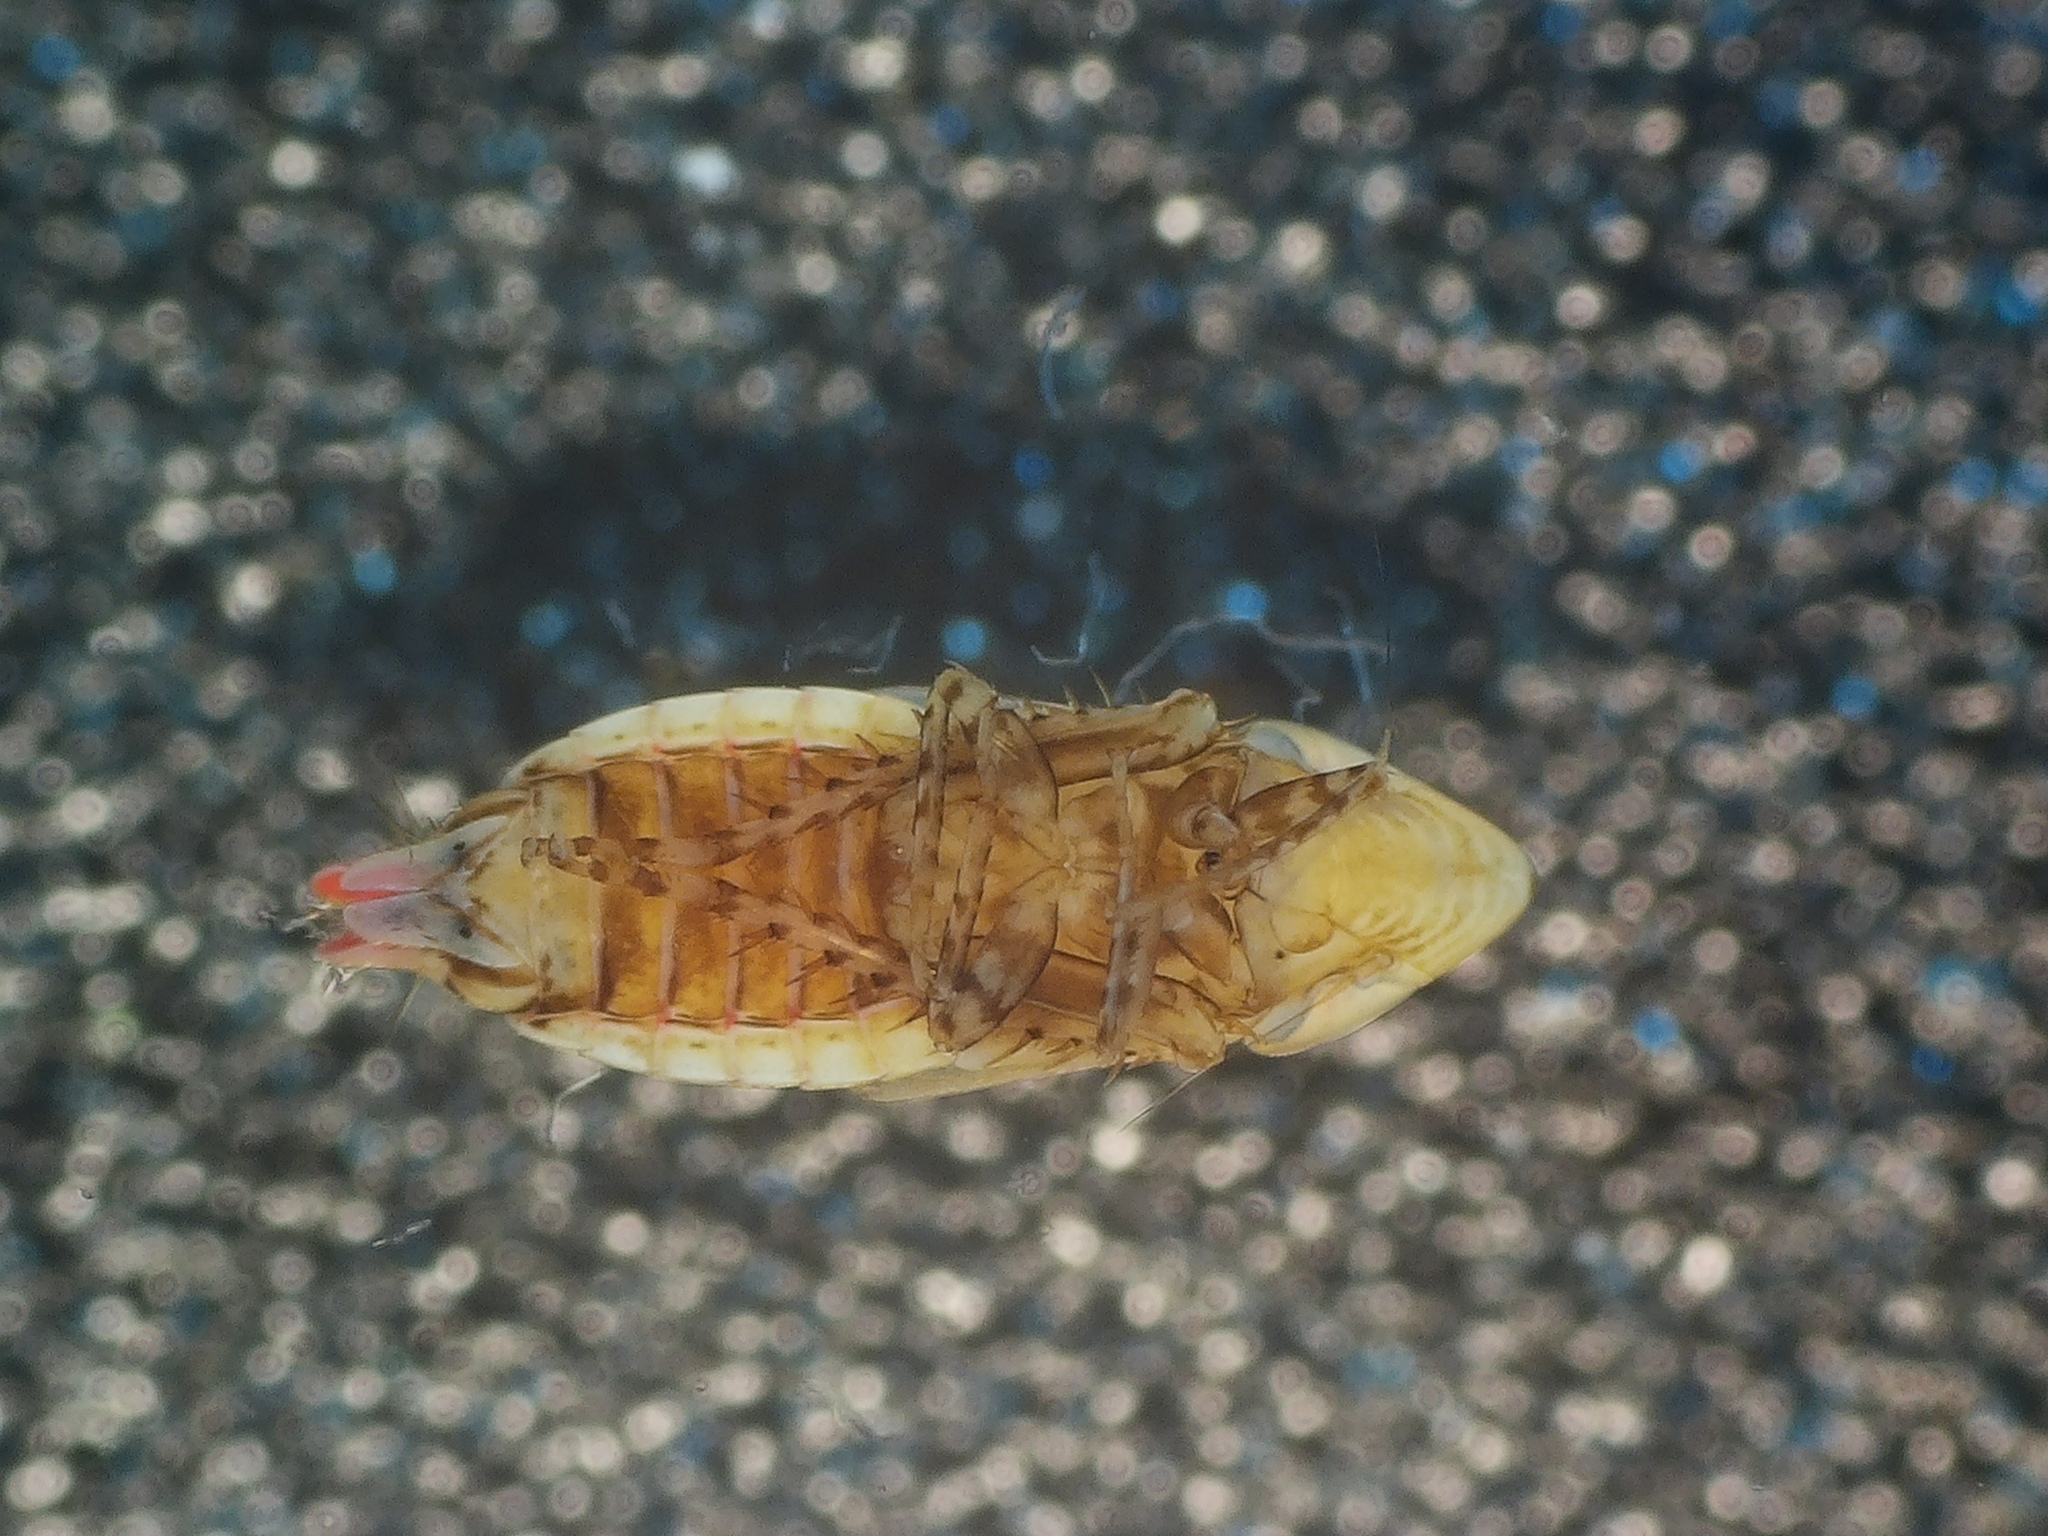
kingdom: Animalia
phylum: Arthropoda
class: Insecta
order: Hemiptera
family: Cicadellidae
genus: Aflexia
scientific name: Aflexia rubranura
